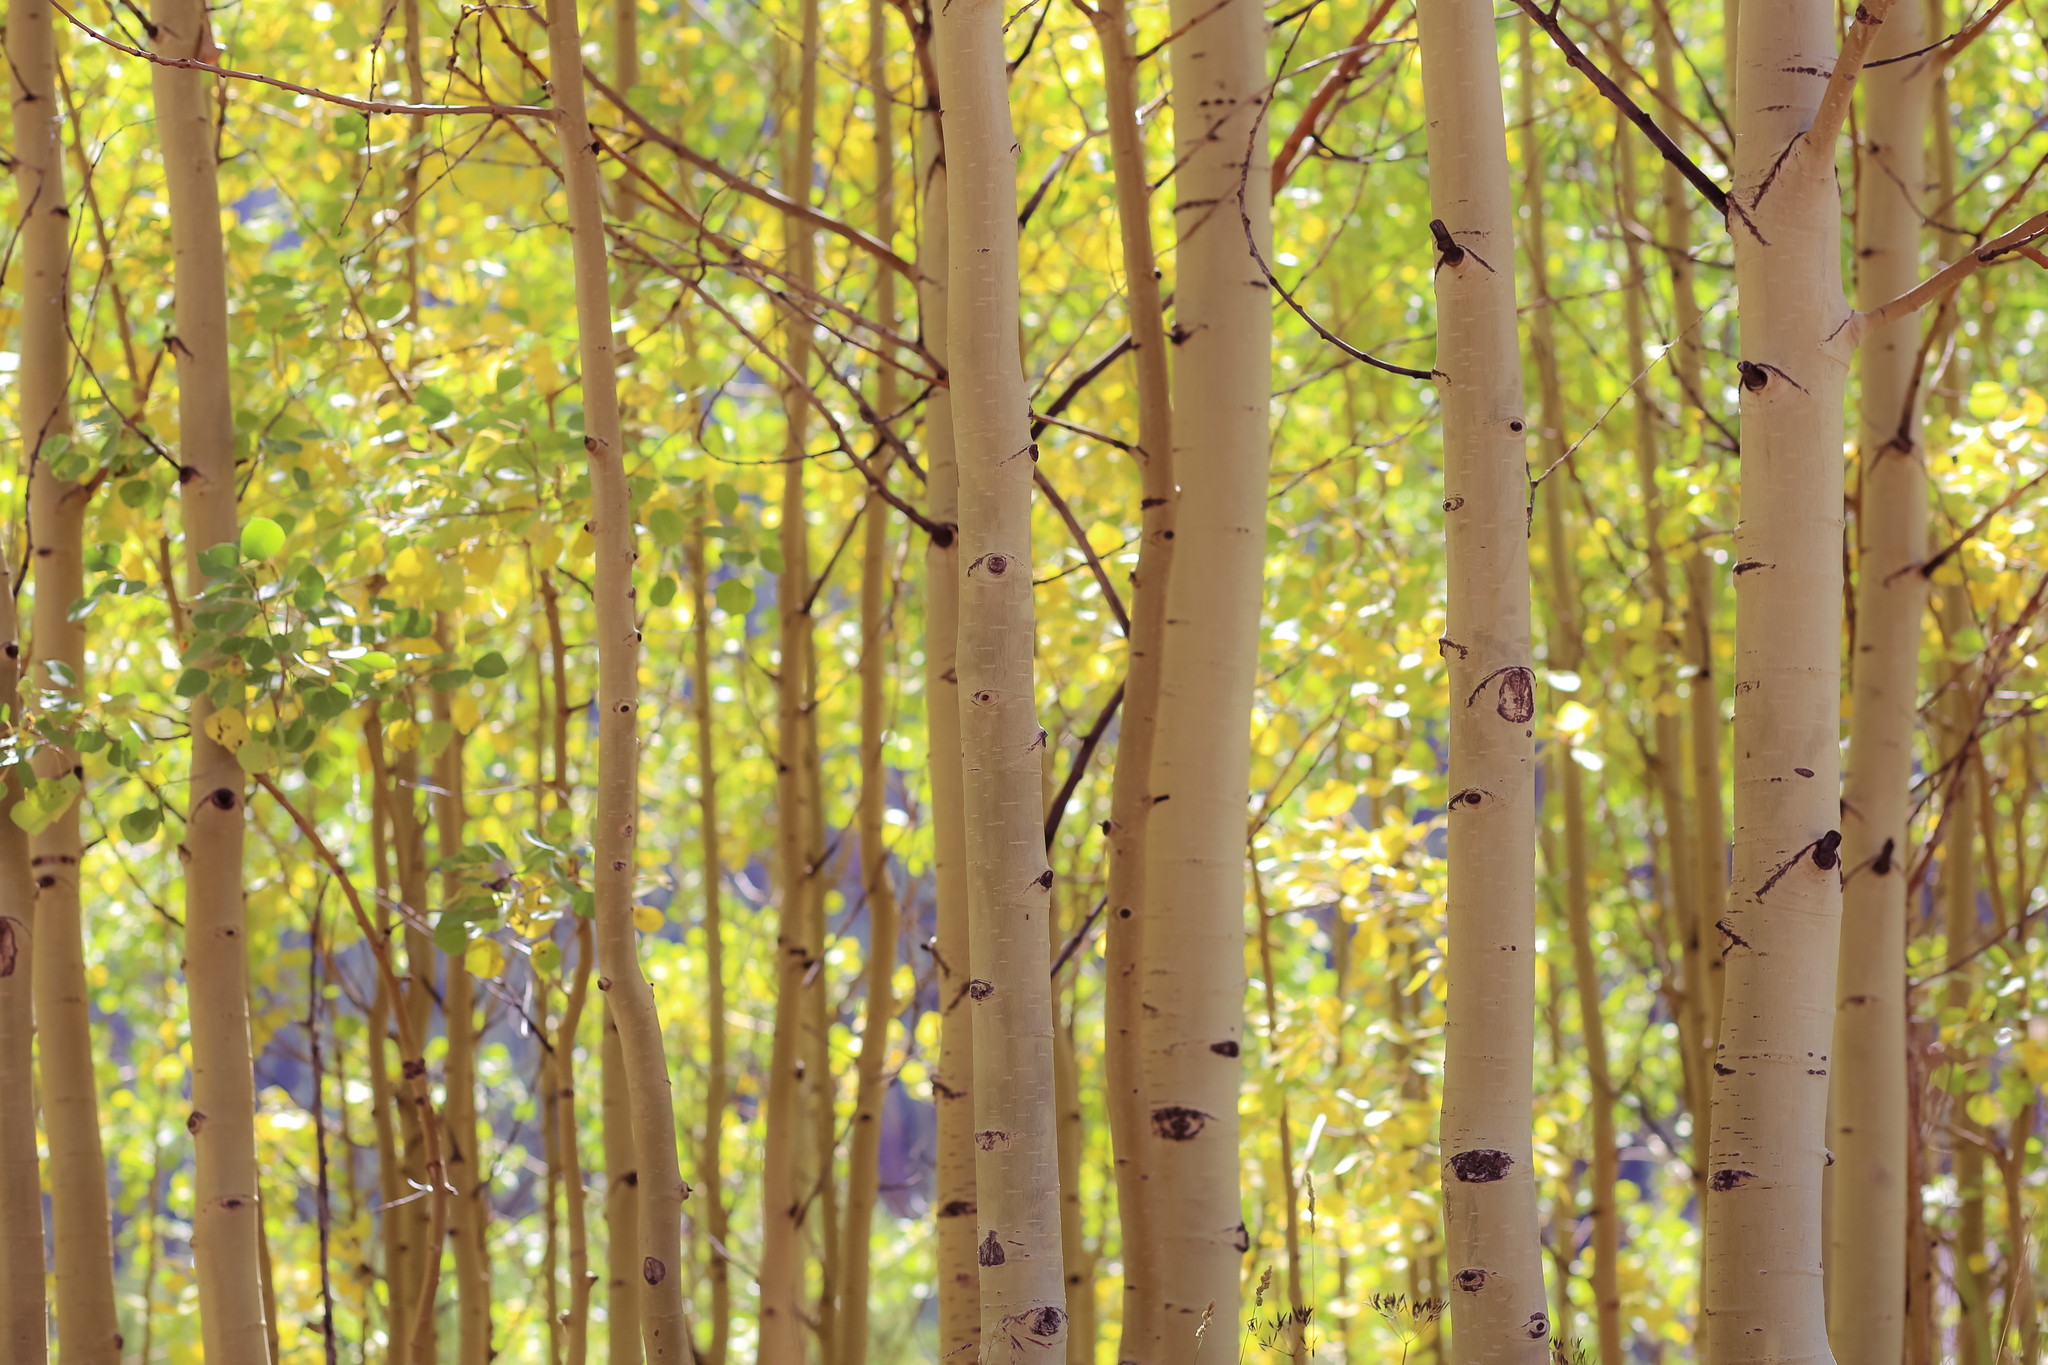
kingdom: Plantae
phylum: Tracheophyta
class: Magnoliopsida
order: Malpighiales
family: Salicaceae
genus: Populus
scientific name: Populus tremuloides
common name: Quaking aspen
